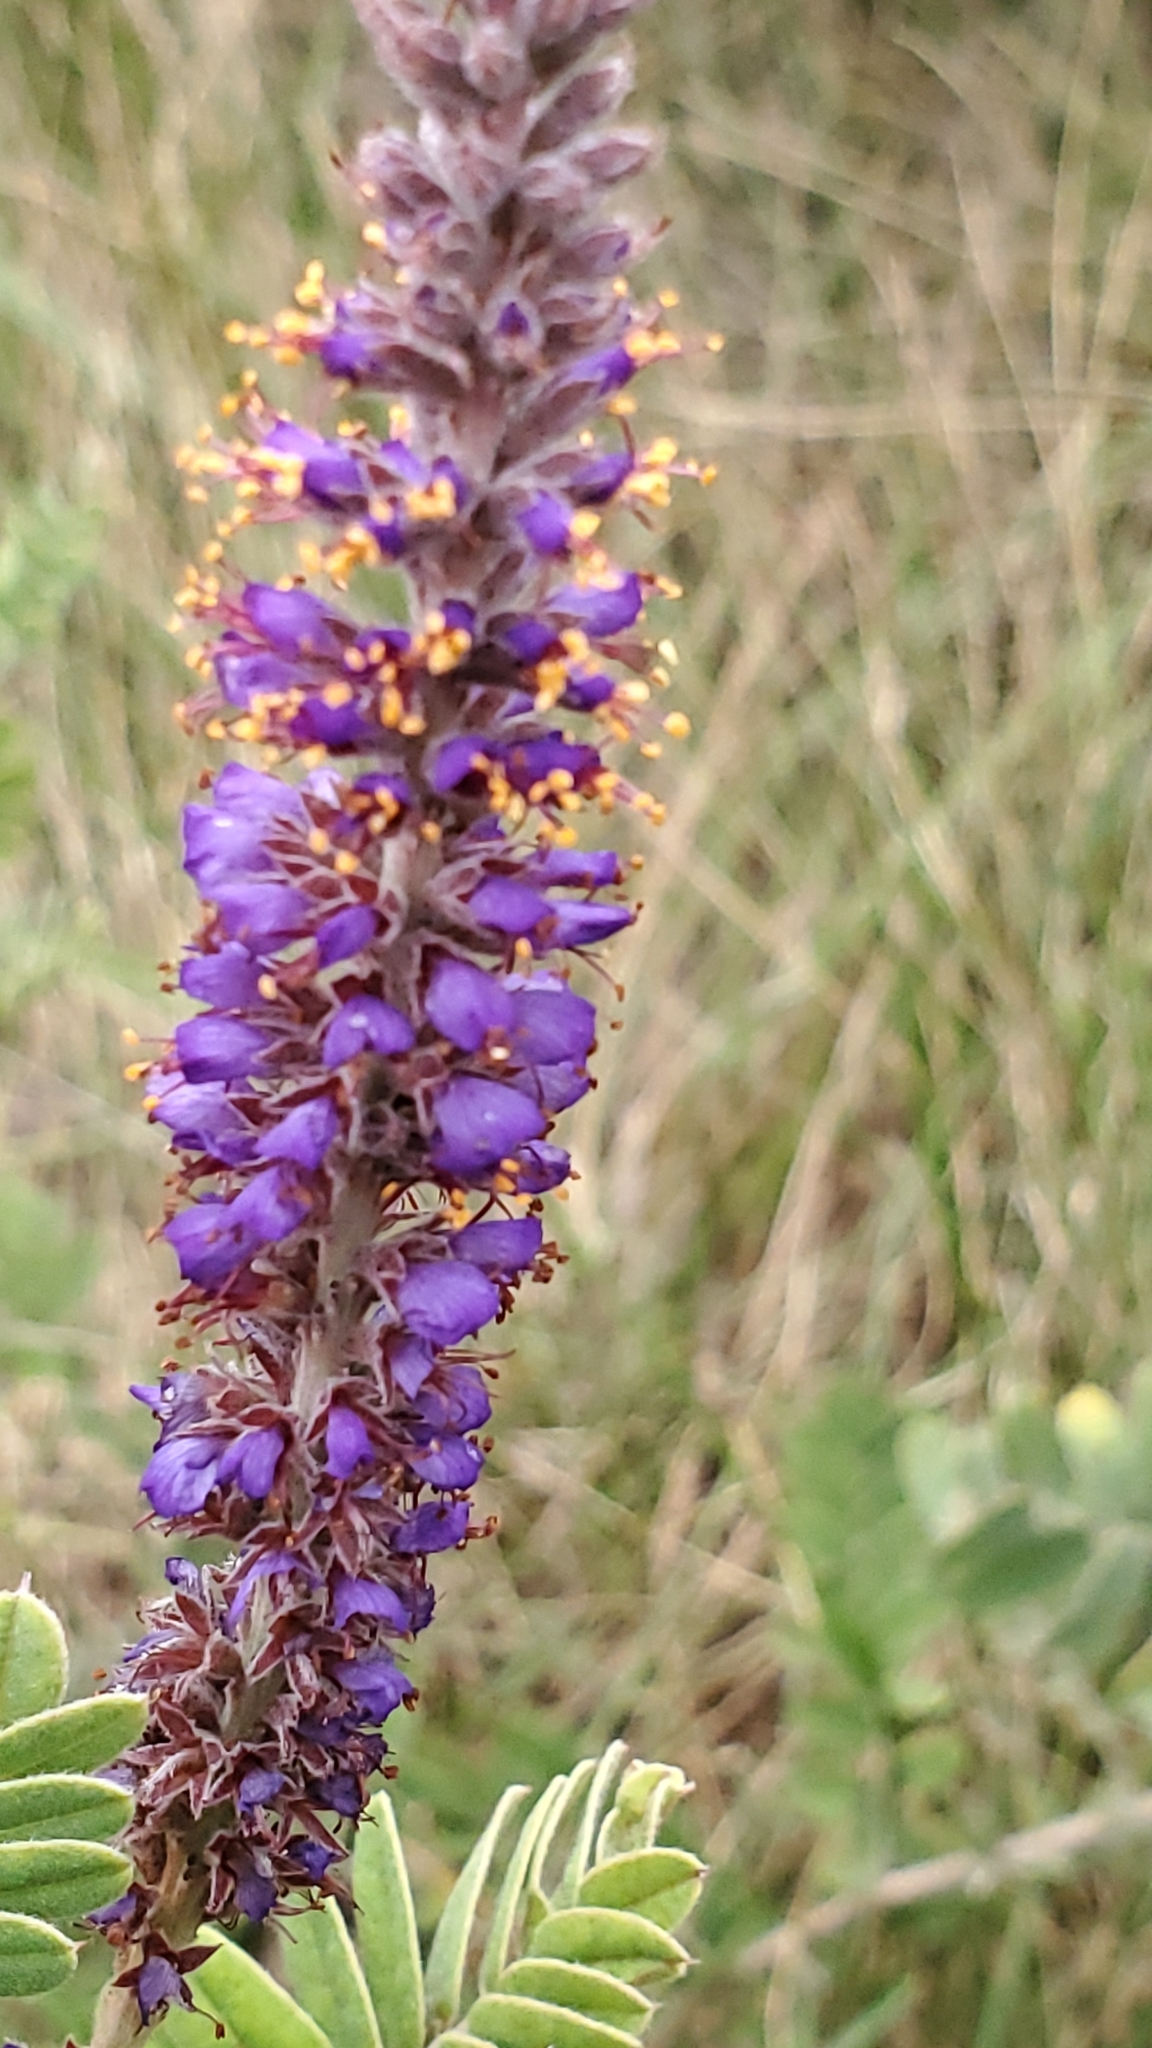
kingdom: Plantae
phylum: Tracheophyta
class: Magnoliopsida
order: Fabales
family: Fabaceae
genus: Amorpha
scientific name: Amorpha canescens
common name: Leadplant
